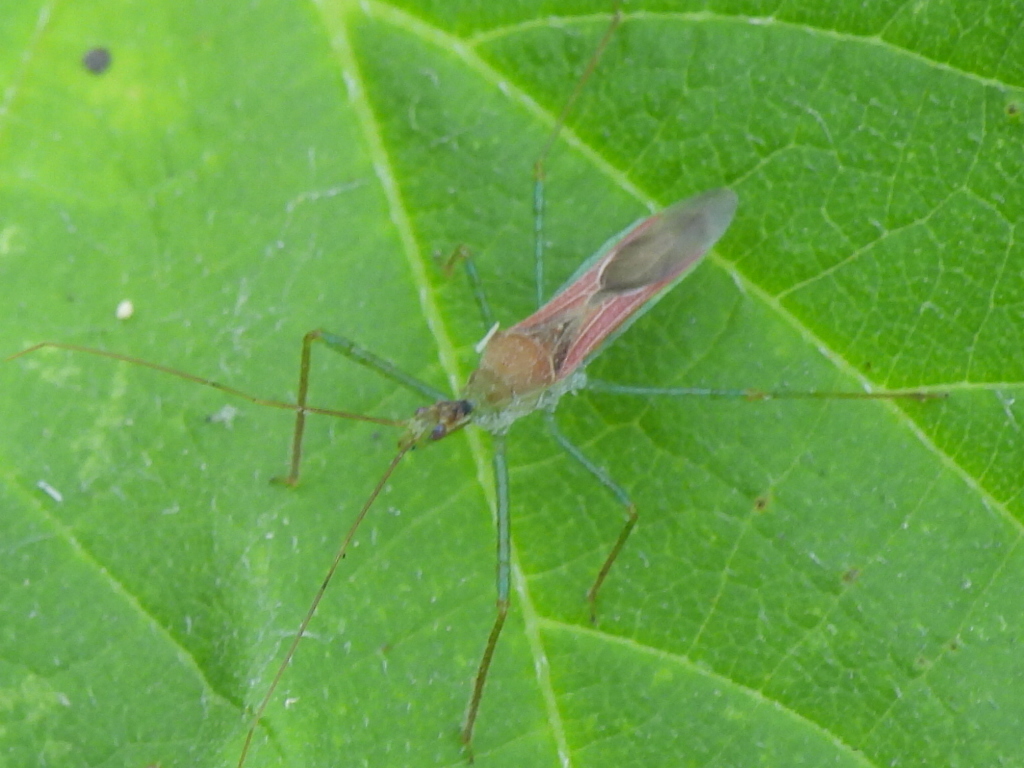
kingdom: Animalia
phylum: Arthropoda
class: Insecta
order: Hemiptera
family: Reduviidae
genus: Zelus
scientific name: Zelus renardii
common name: Assassin bug
